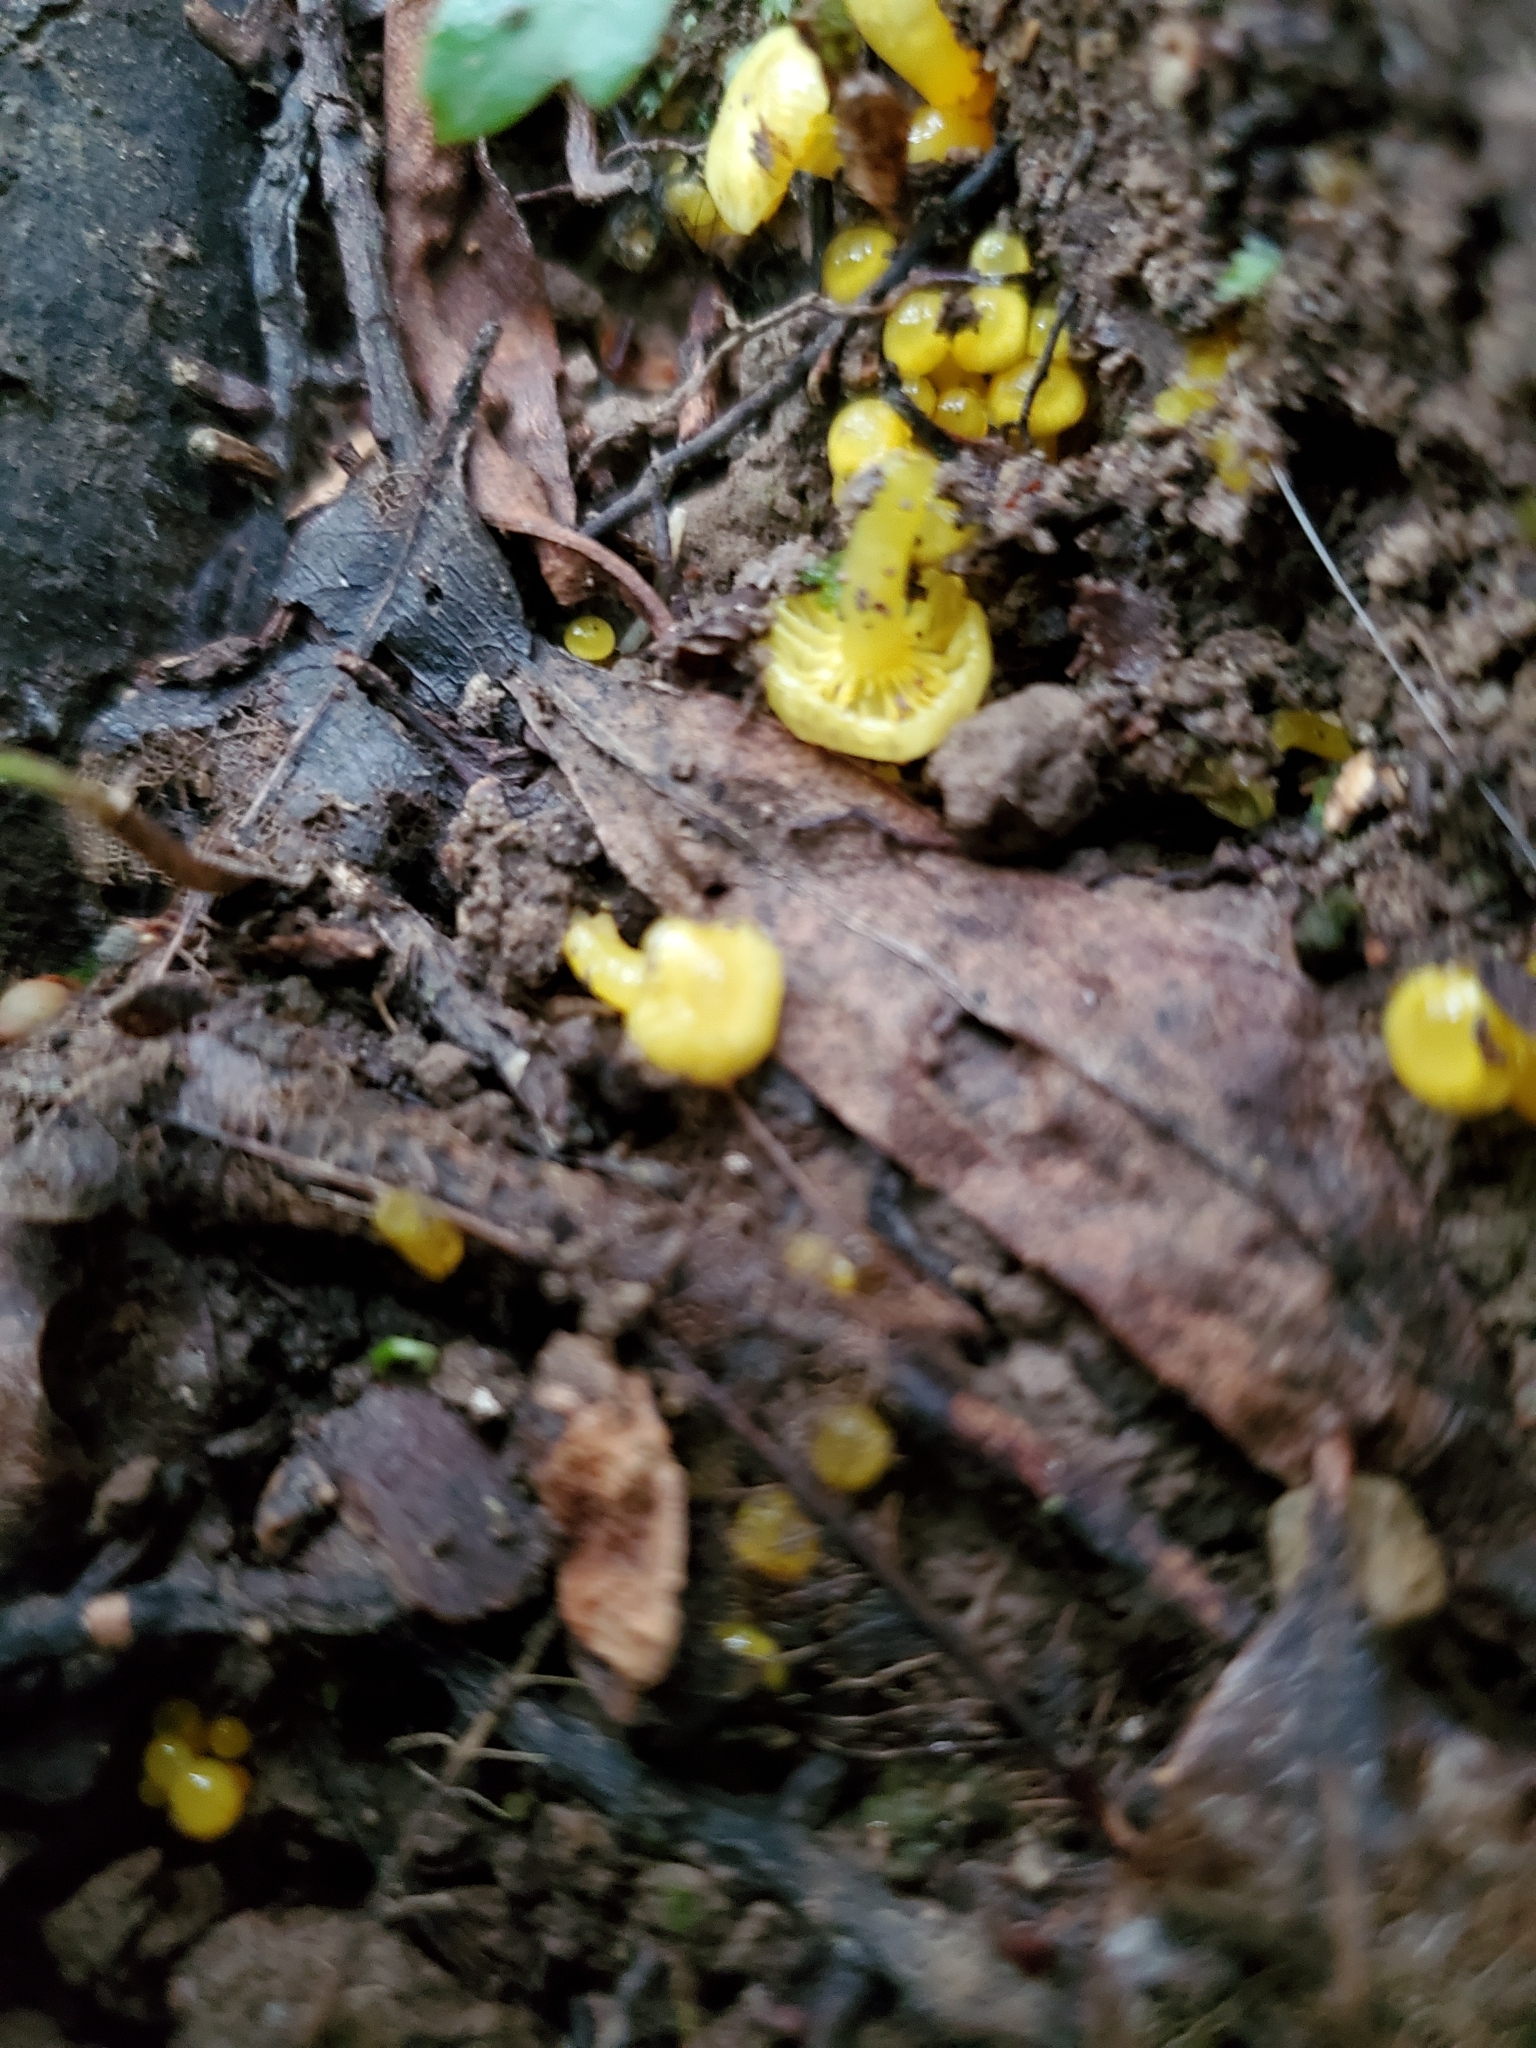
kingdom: Fungi
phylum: Basidiomycota
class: Agaricomycetes
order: Agaricales
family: Hygrophoraceae
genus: Gloioxanthomyces
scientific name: Gloioxanthomyces
